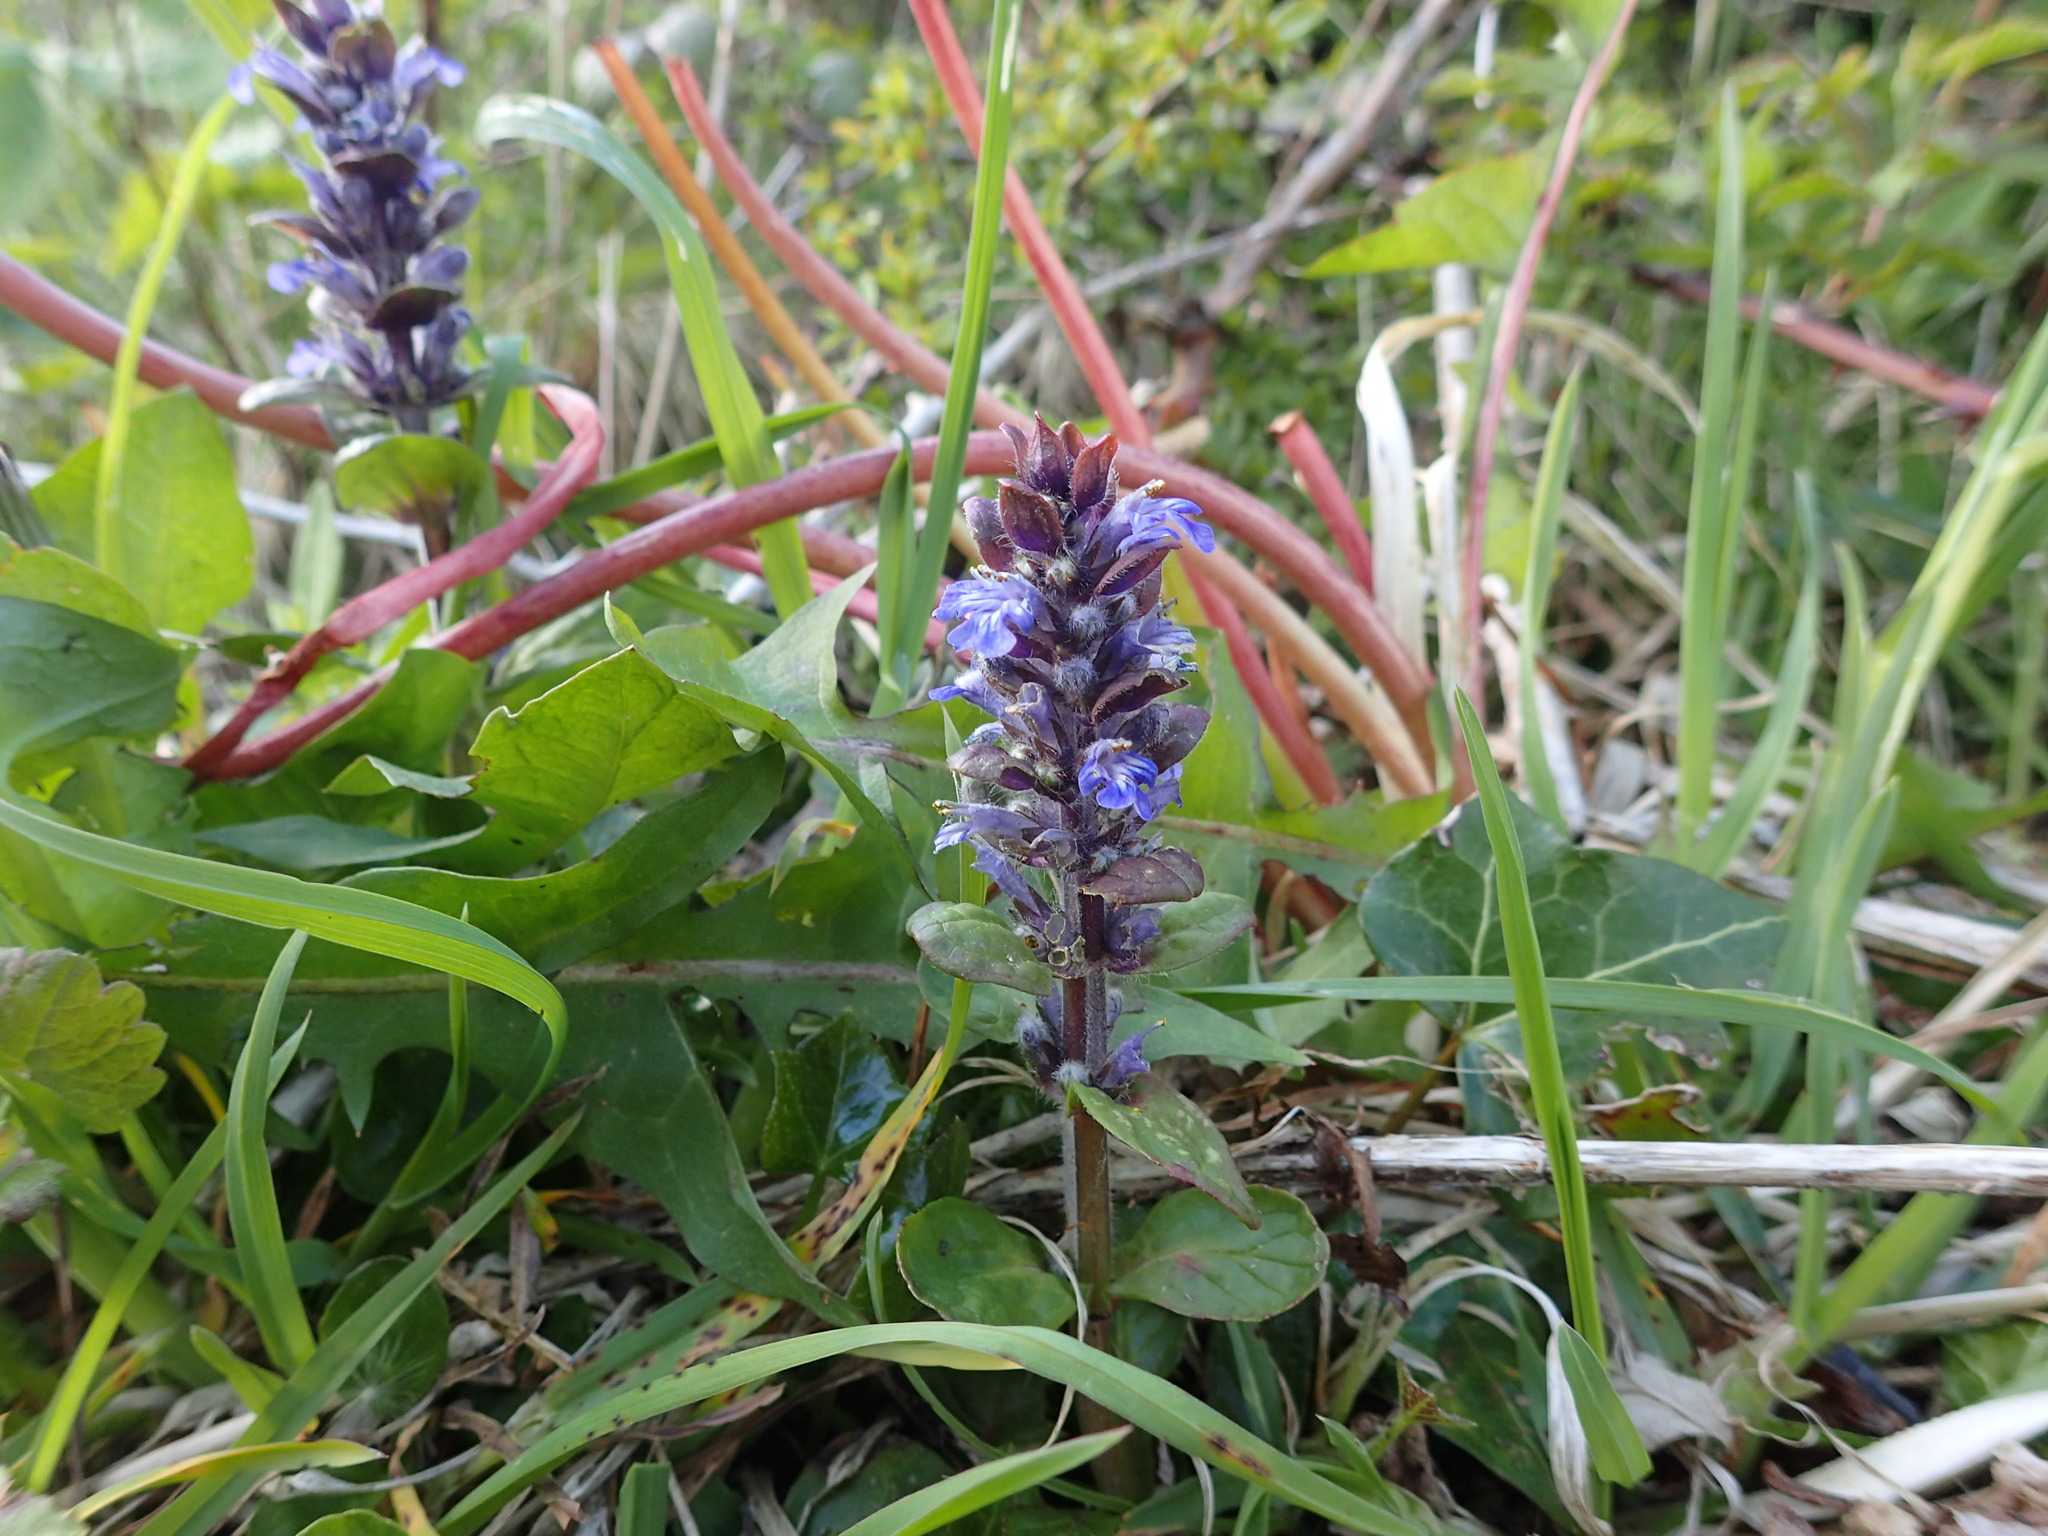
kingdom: Plantae
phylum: Tracheophyta
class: Magnoliopsida
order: Lamiales
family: Lamiaceae
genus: Ajuga
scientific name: Ajuga reptans
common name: Bugle
